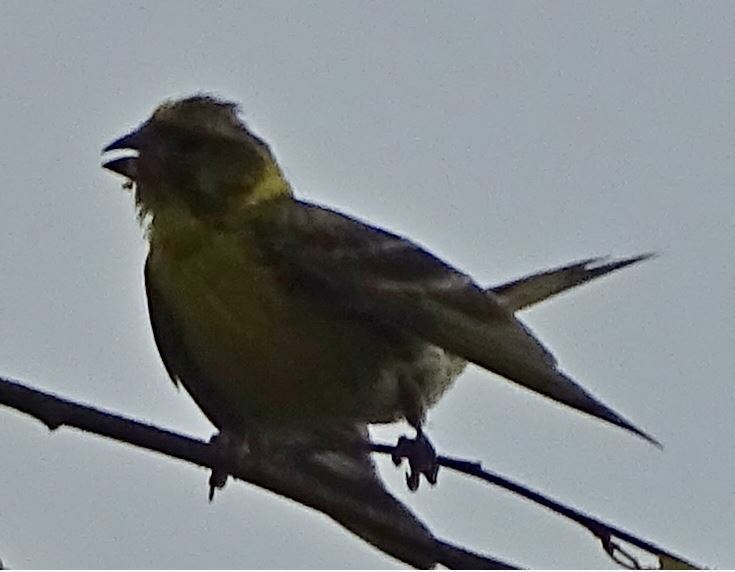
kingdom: Animalia
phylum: Chordata
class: Aves
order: Passeriformes
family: Fringillidae
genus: Serinus
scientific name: Serinus serinus
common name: European serin
